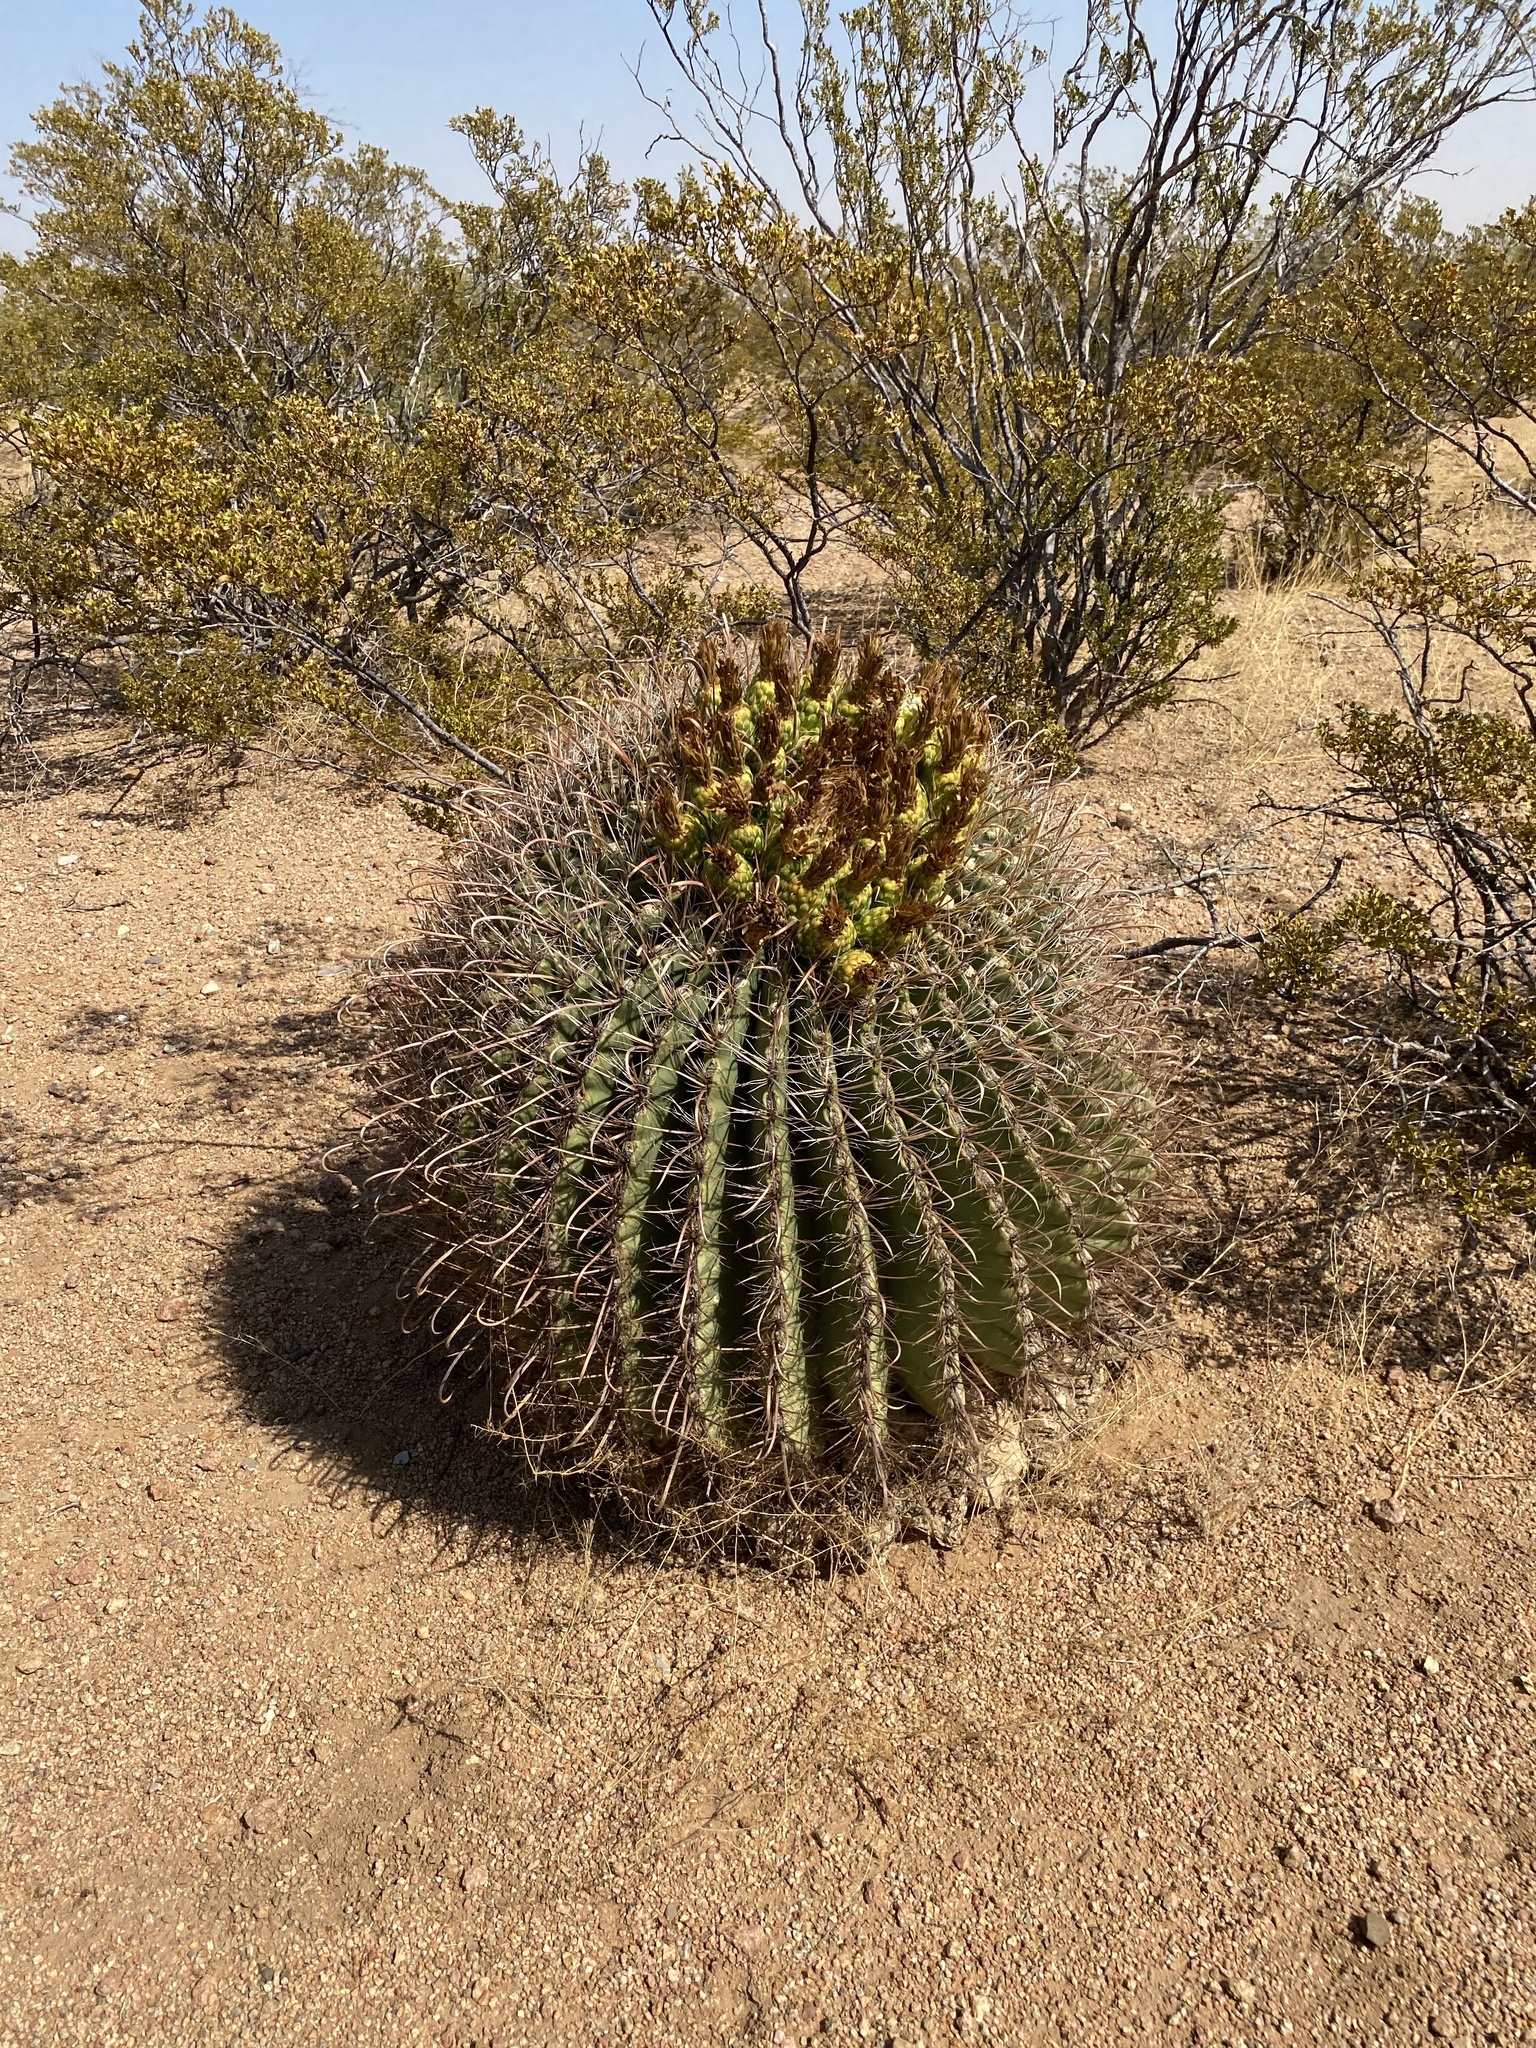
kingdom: Plantae
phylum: Tracheophyta
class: Magnoliopsida
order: Caryophyllales
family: Cactaceae
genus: Ferocactus
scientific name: Ferocactus wislizeni
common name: Candy barrel cactus
